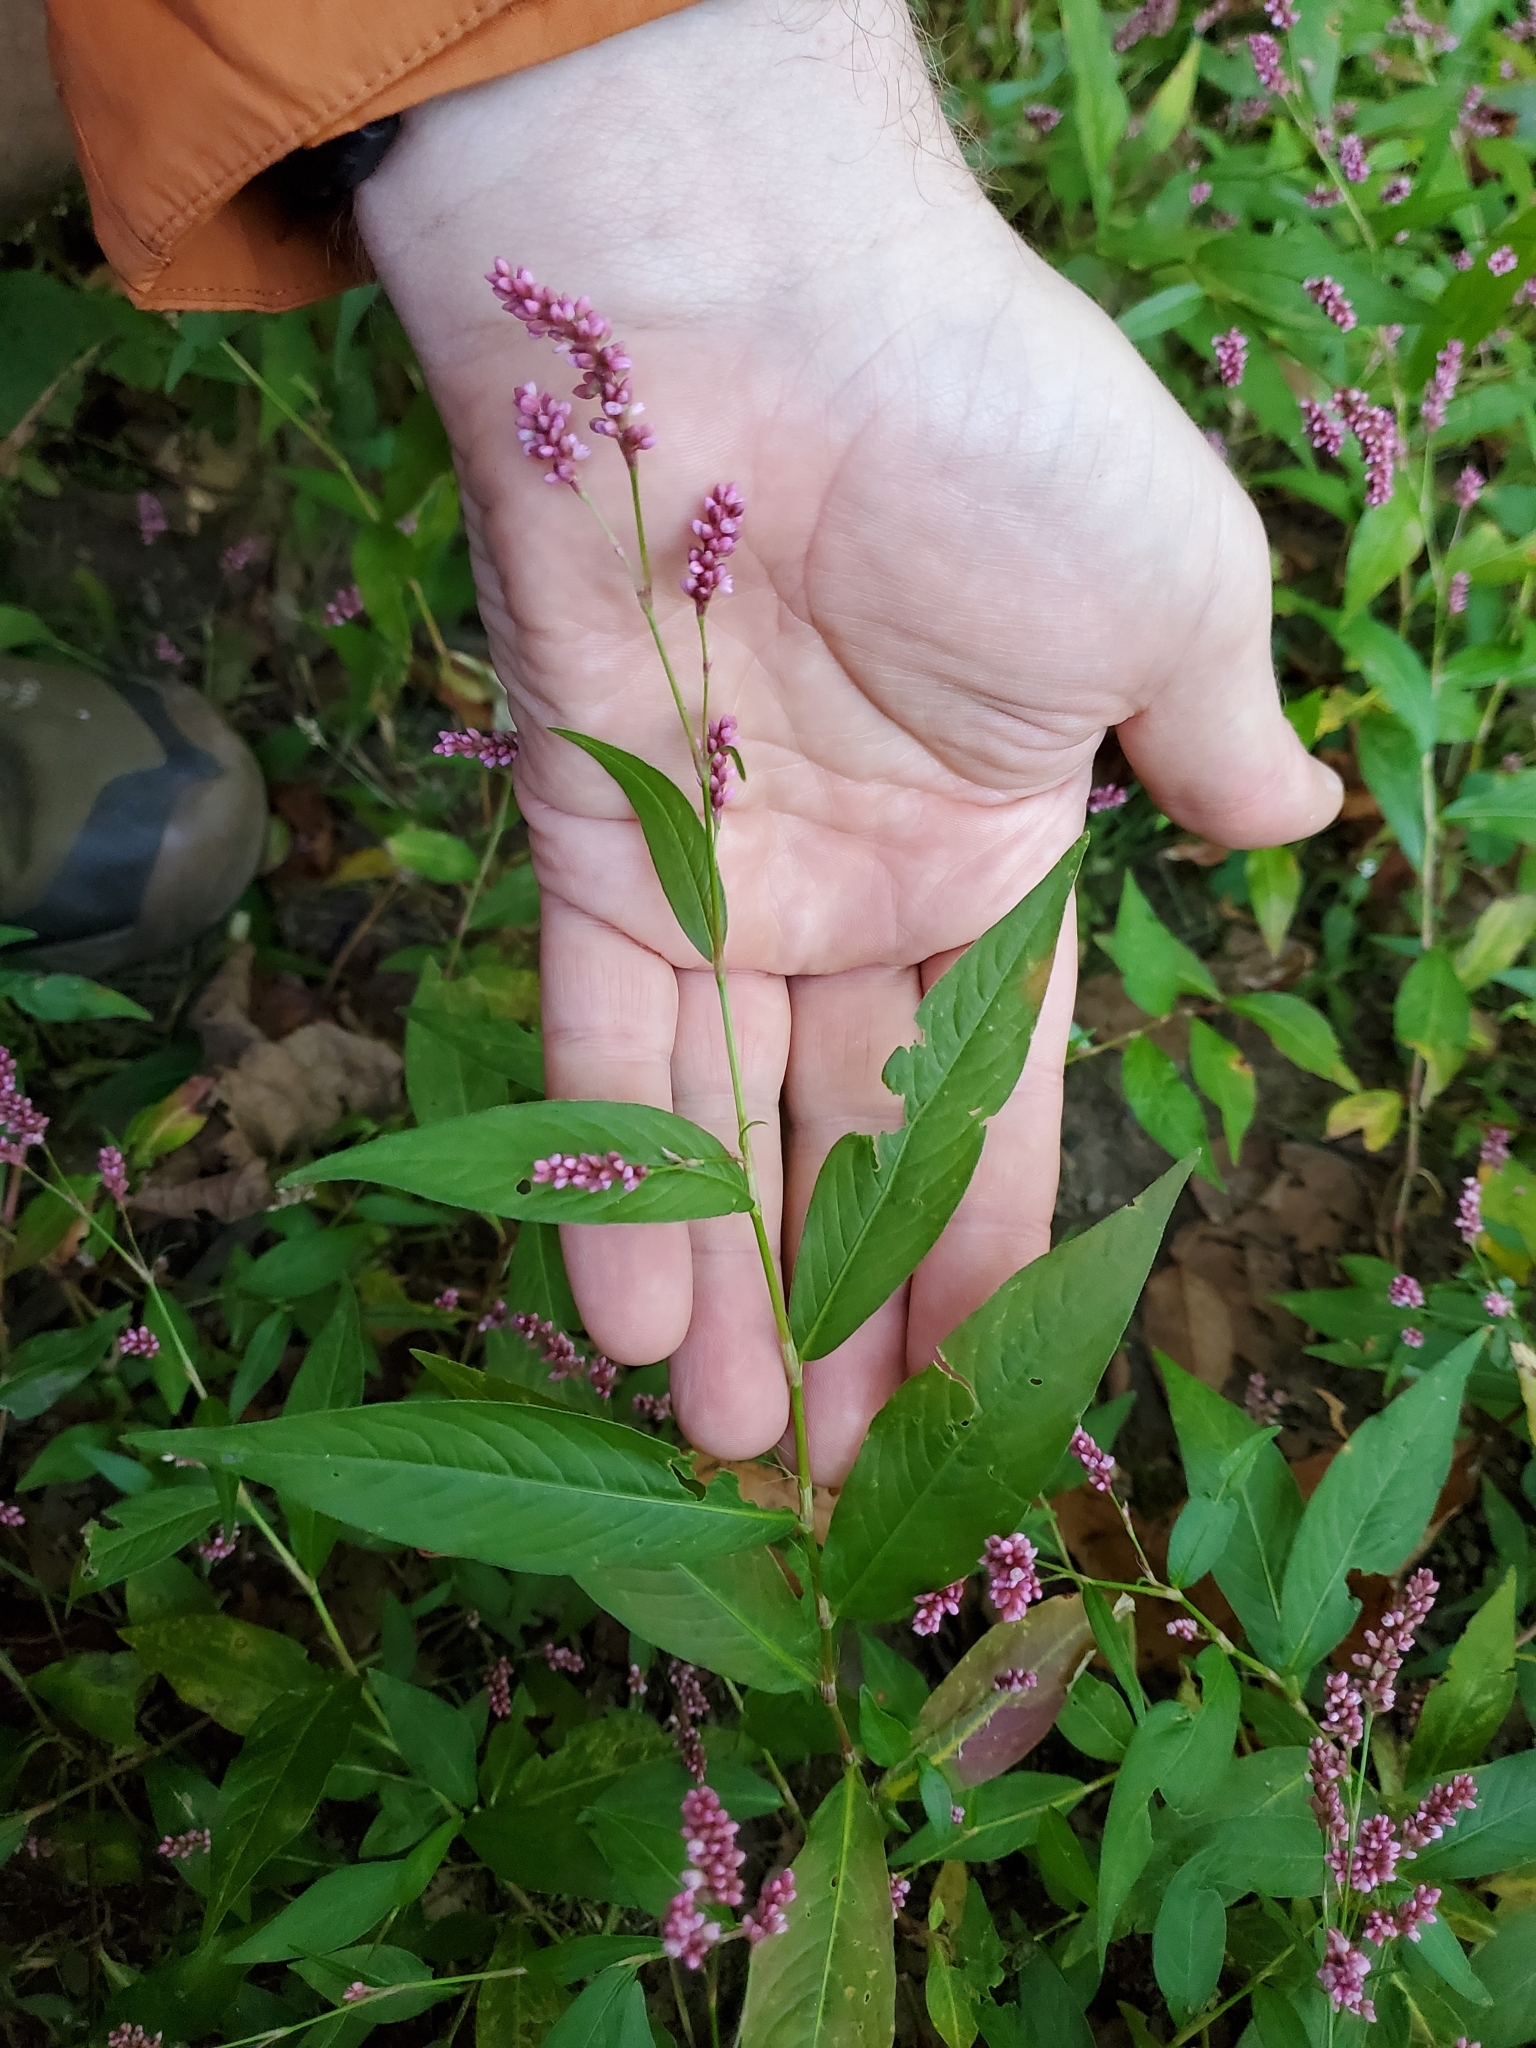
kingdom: Plantae
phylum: Tracheophyta
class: Magnoliopsida
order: Caryophyllales
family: Polygonaceae
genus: Persicaria
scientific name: Persicaria longiseta
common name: Bristly lady's-thumb
